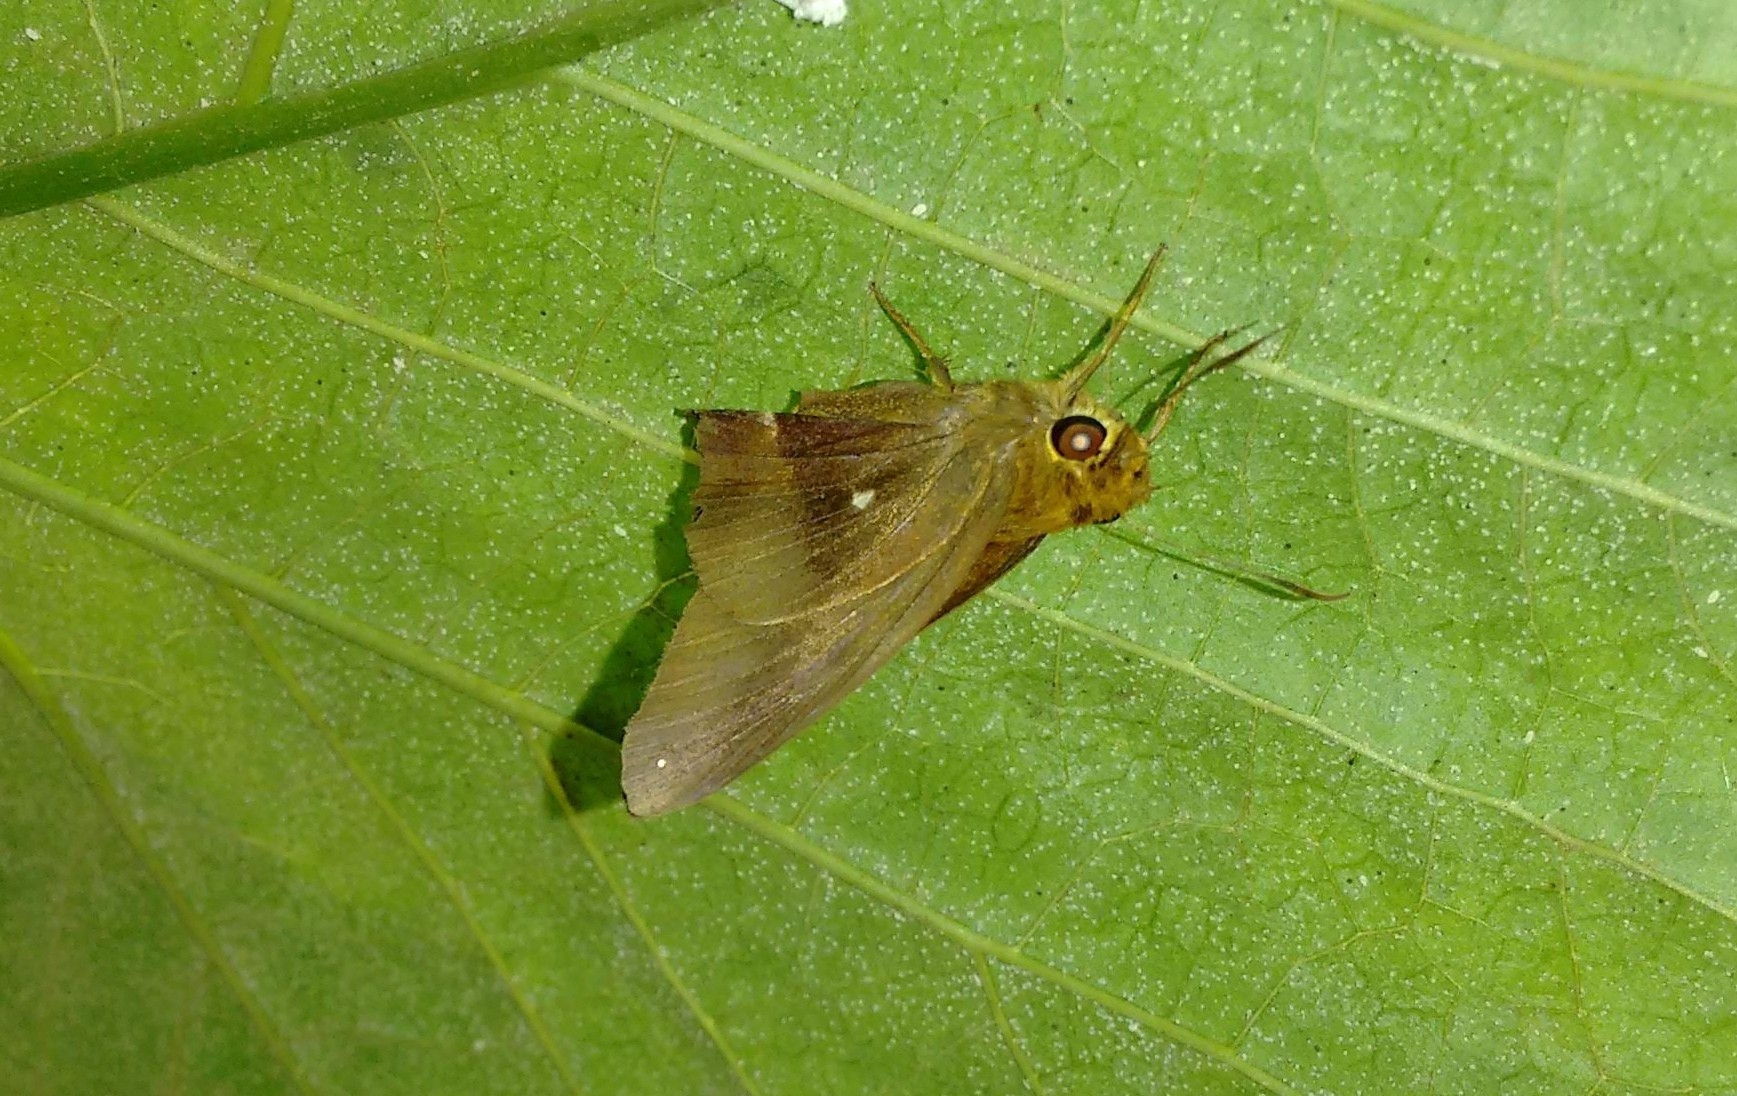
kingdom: Animalia
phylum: Arthropoda
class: Insecta
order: Lepidoptera
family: Hesperiidae
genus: Hasora
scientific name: Hasora badra
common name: Common awl
